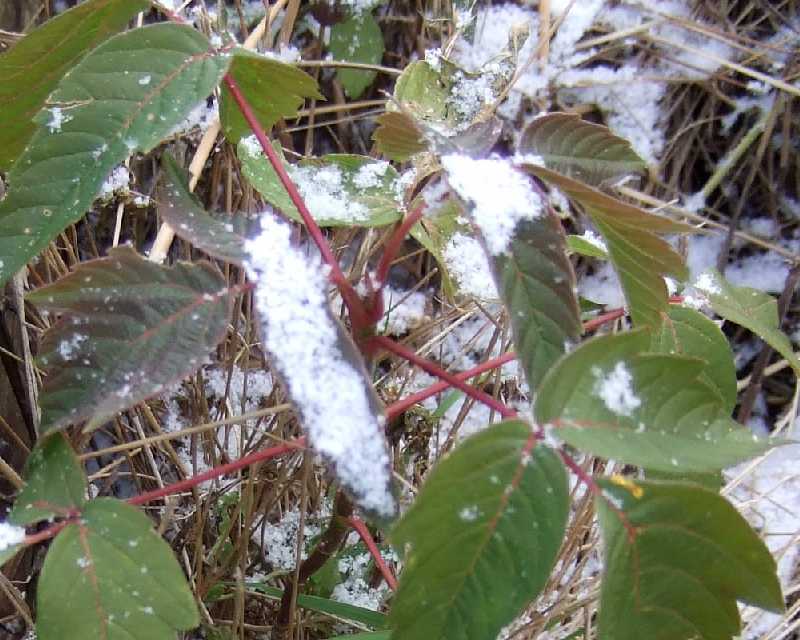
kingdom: Plantae
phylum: Tracheophyta
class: Magnoliopsida
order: Sapindales
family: Sapindaceae
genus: Acer
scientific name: Acer negundo
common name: Ashleaf maple
